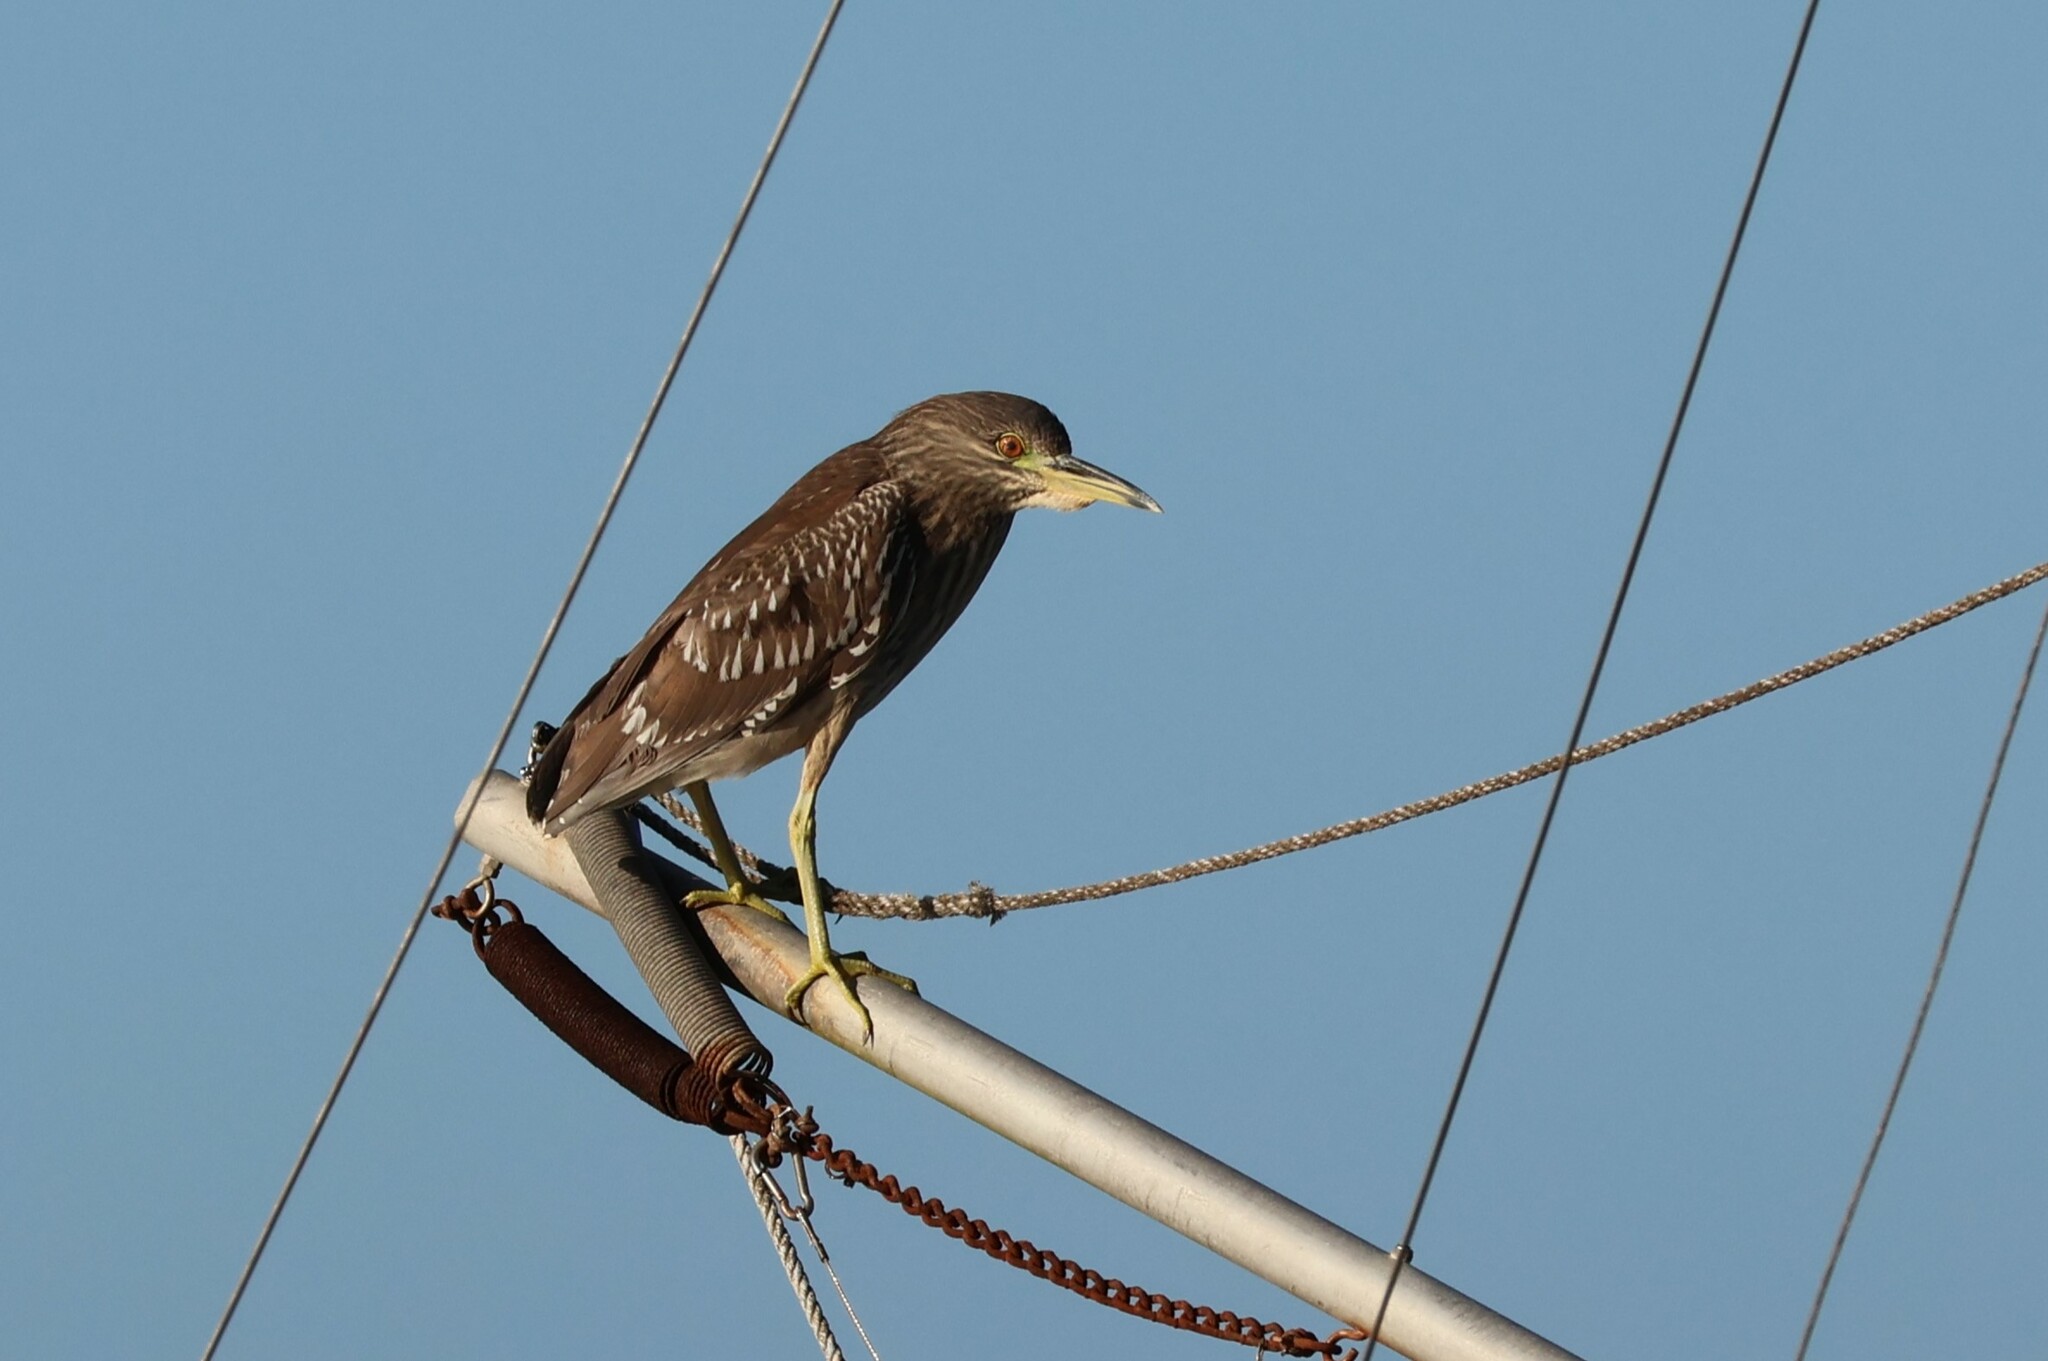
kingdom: Animalia
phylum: Chordata
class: Aves
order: Pelecaniformes
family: Ardeidae
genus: Nycticorax
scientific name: Nycticorax nycticorax
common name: Black-crowned night heron
